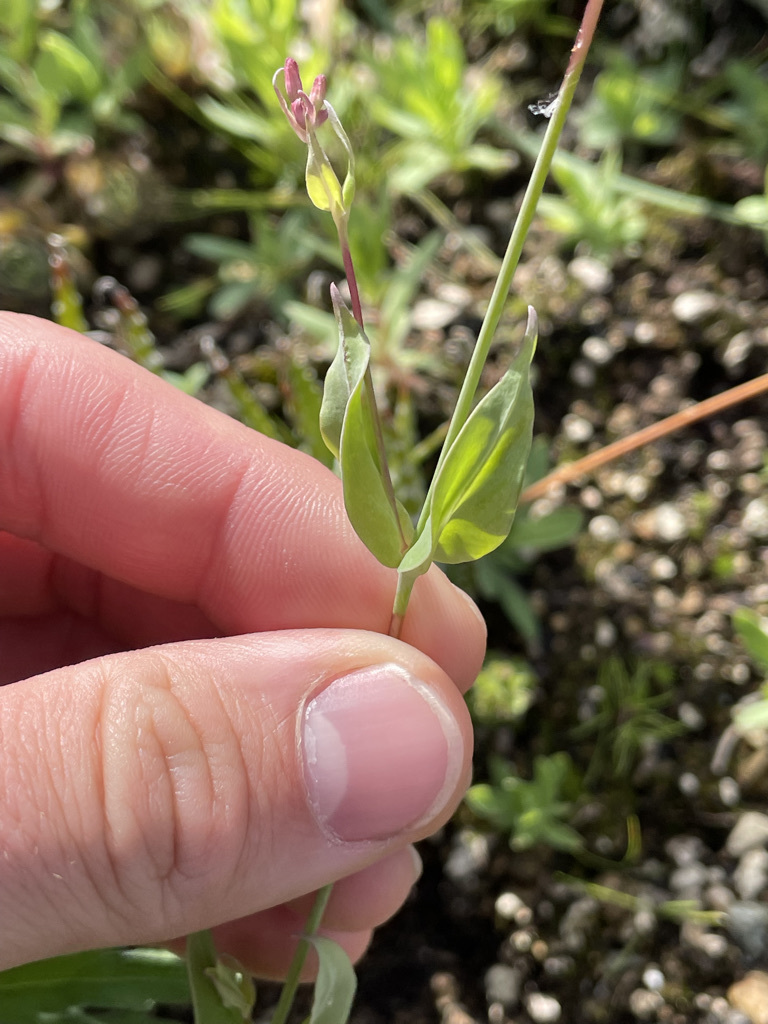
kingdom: Plantae
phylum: Tracheophyta
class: Magnoliopsida
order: Caryophyllales
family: Caryophyllaceae
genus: Atocion
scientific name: Atocion armeria
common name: Sweet william catchfly
